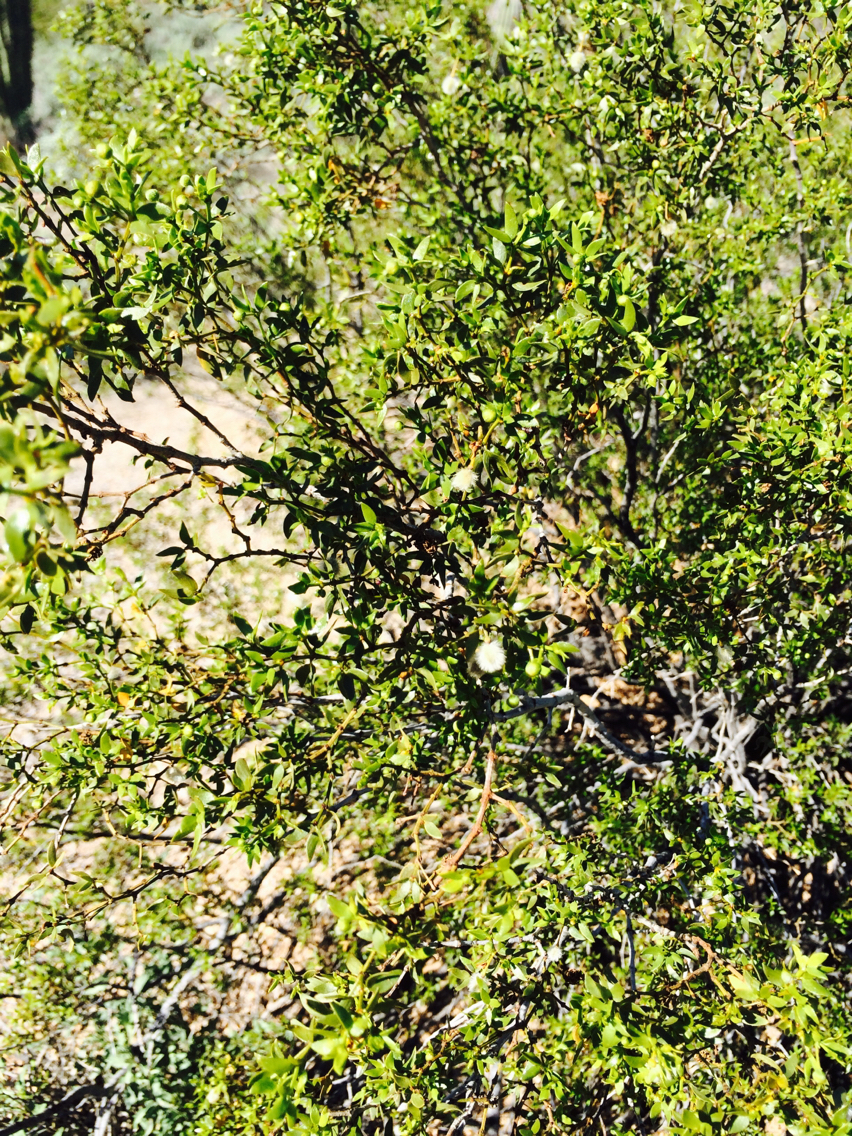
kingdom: Plantae
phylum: Tracheophyta
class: Magnoliopsida
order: Zygophyllales
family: Zygophyllaceae
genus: Larrea
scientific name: Larrea tridentata
